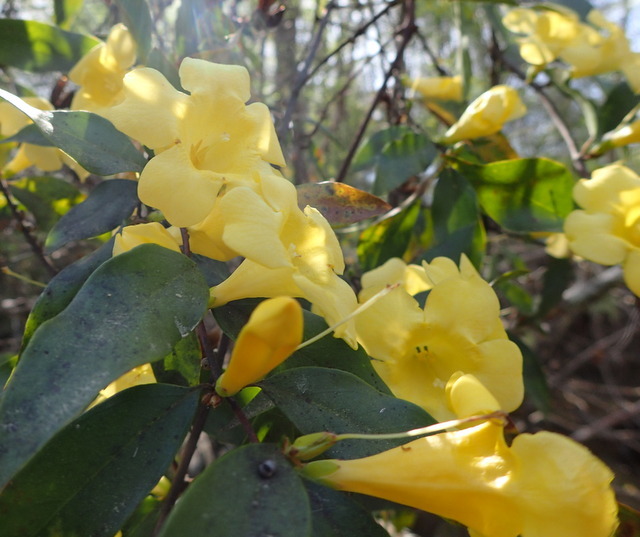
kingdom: Plantae
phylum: Tracheophyta
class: Magnoliopsida
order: Gentianales
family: Gelsemiaceae
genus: Gelsemium
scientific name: Gelsemium sempervirens
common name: Carolina-jasmine
